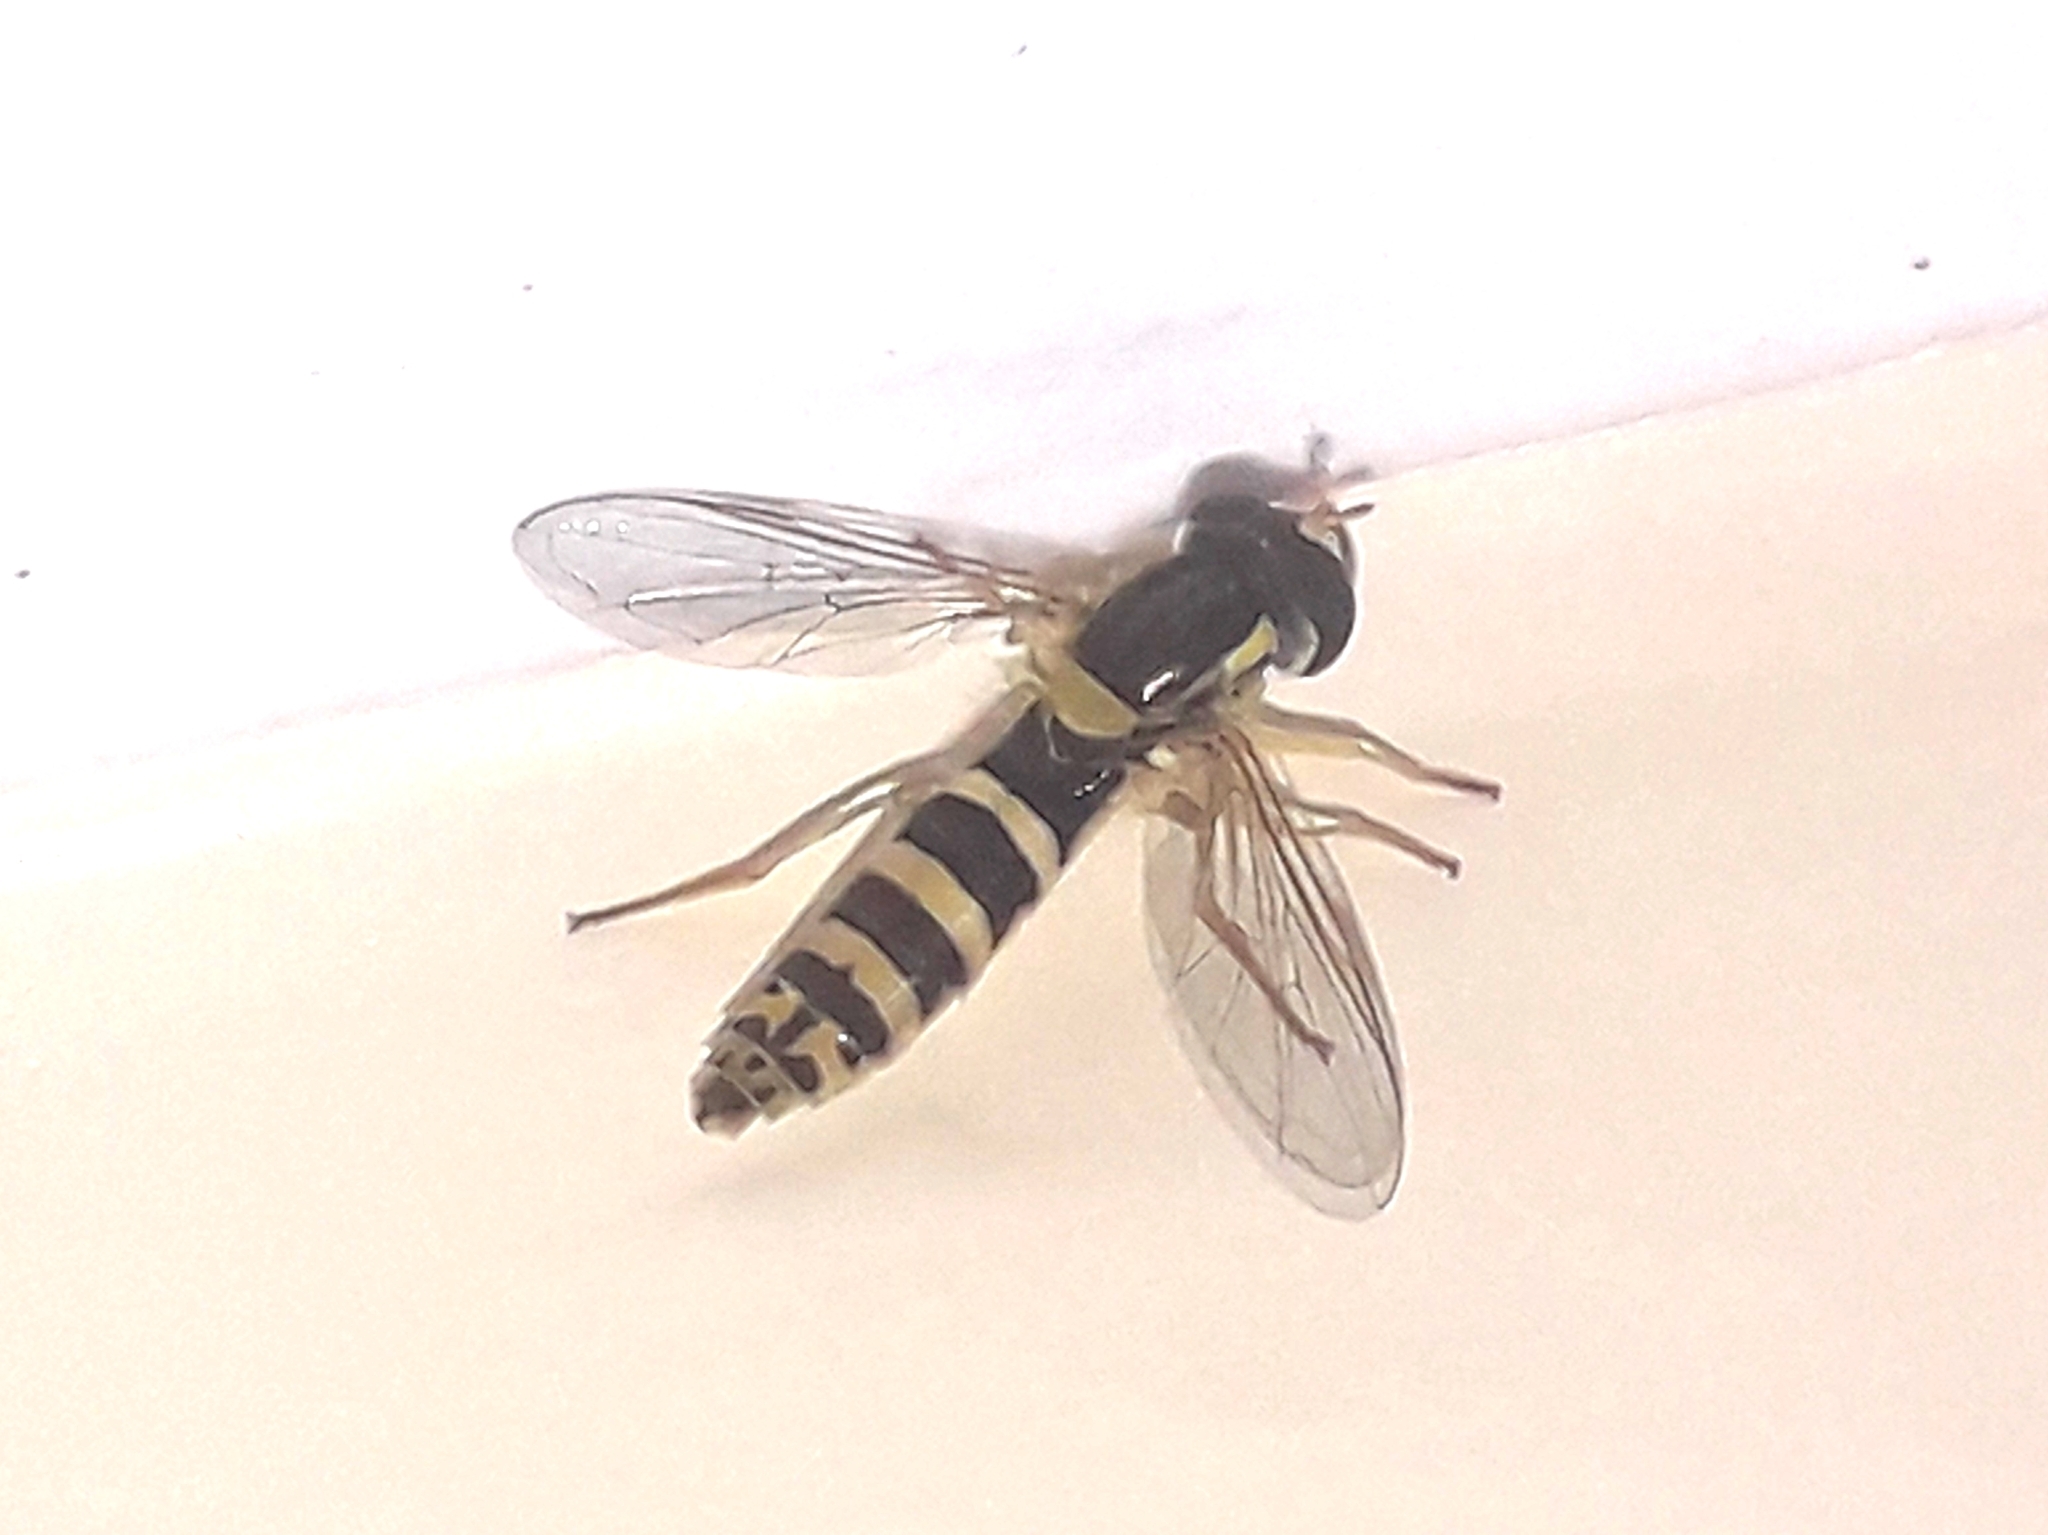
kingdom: Animalia
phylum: Arthropoda
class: Insecta
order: Diptera
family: Syrphidae
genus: Sphaerophoria
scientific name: Sphaerophoria
